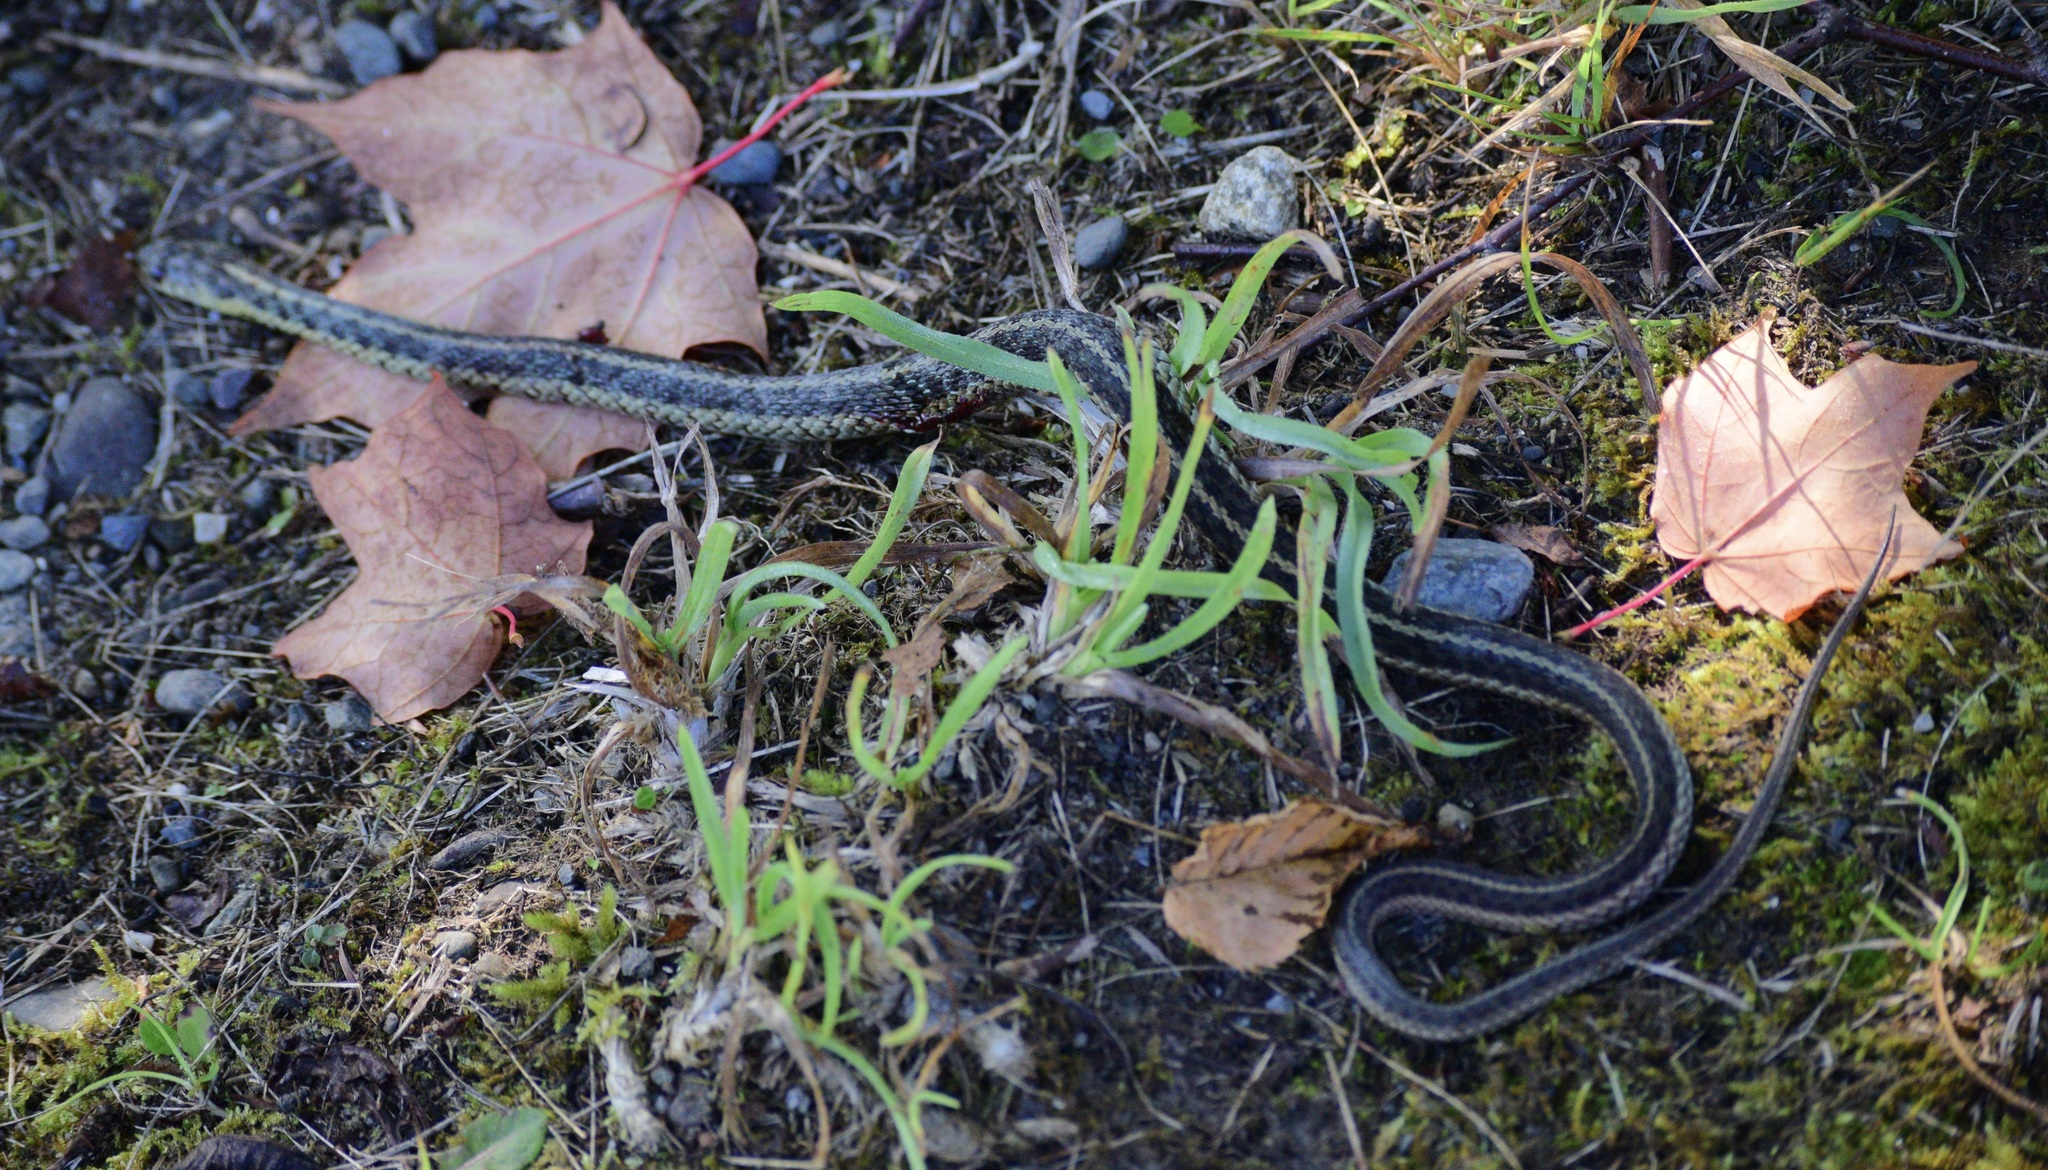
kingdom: Animalia
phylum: Chordata
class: Squamata
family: Colubridae
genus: Thamnophis
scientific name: Thamnophis sirtalis
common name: Common garter snake
